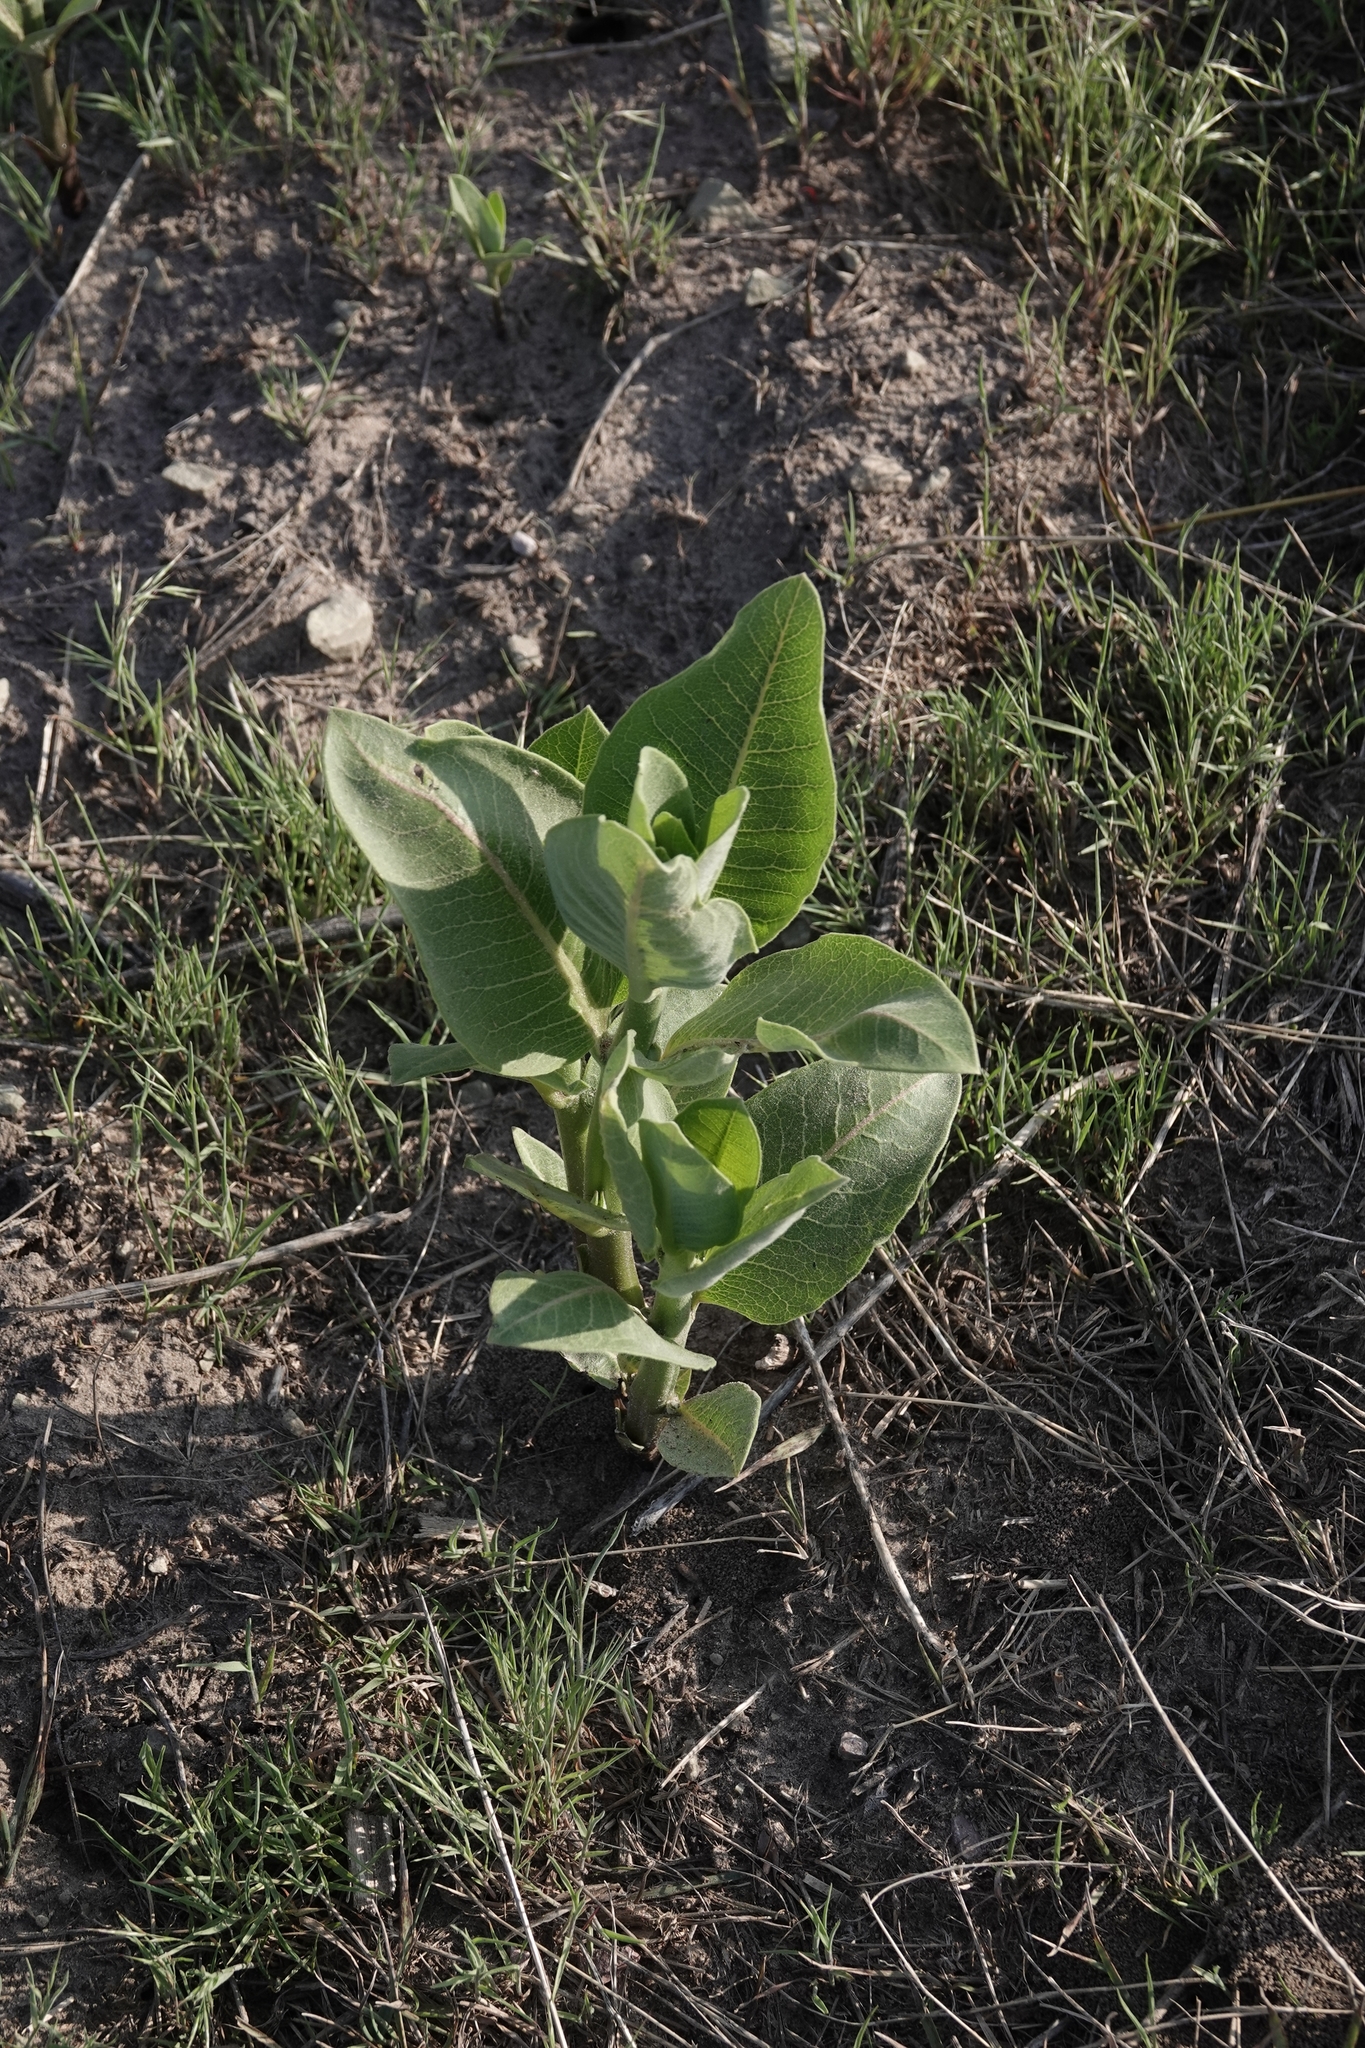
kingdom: Plantae
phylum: Tracheophyta
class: Magnoliopsida
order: Gentianales
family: Apocynaceae
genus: Asclepias
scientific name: Asclepias speciosa
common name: Showy milkweed
